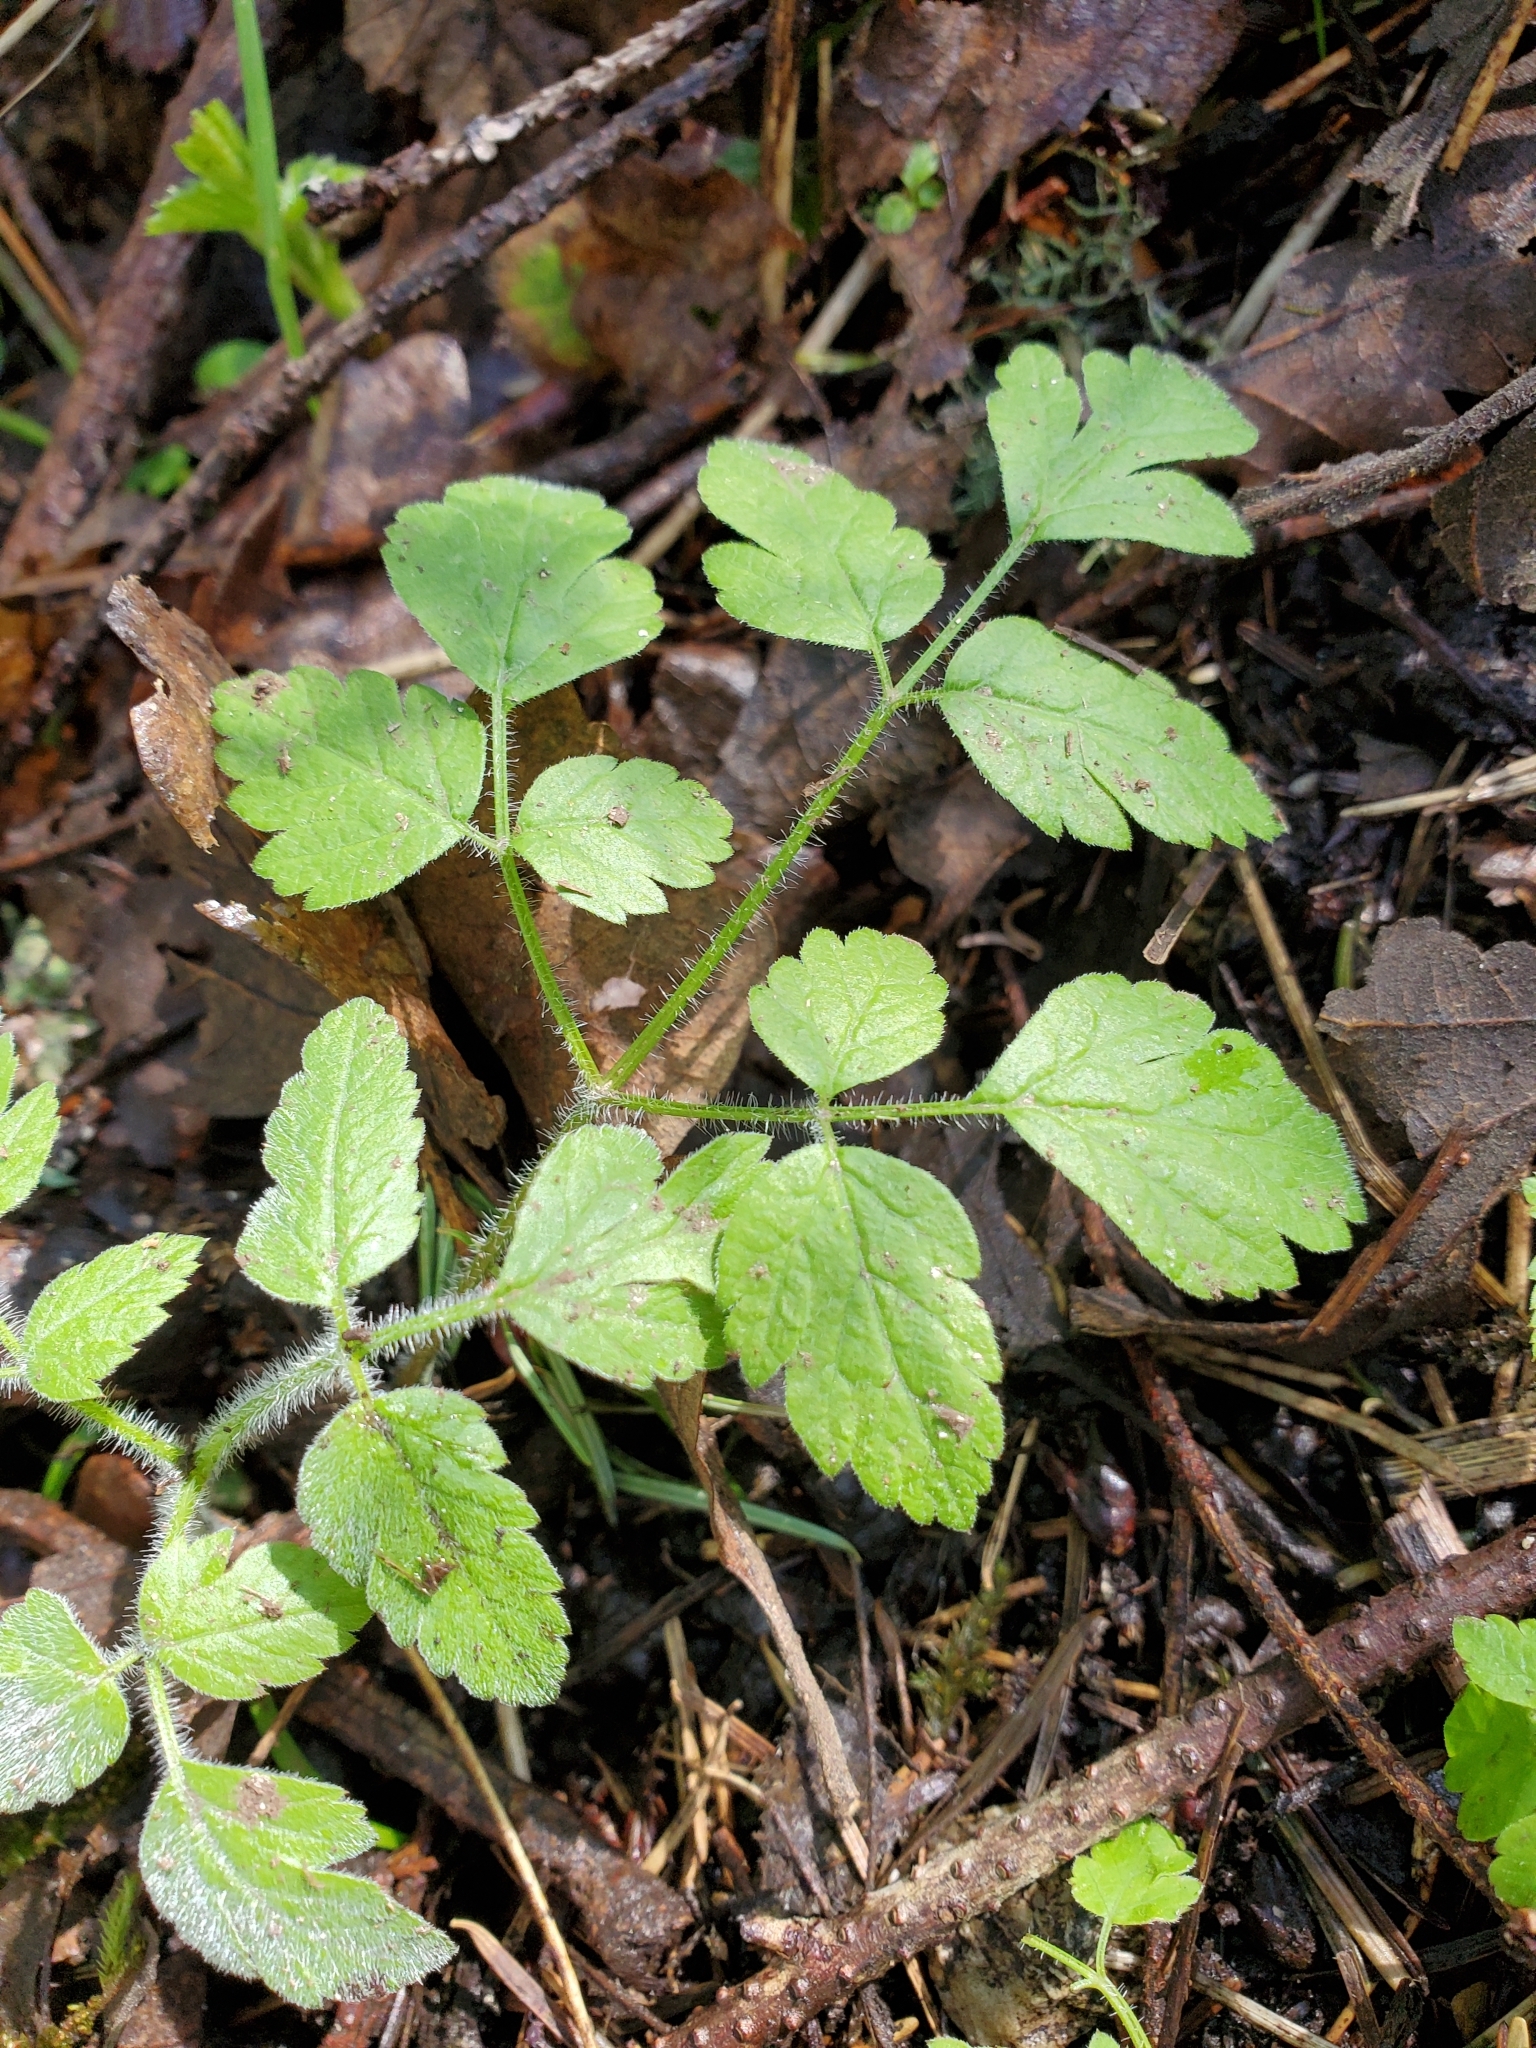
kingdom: Plantae
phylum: Tracheophyta
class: Magnoliopsida
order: Apiales
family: Apiaceae
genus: Osmorhiza
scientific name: Osmorhiza berteroi
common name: Mountain sweet cicely
